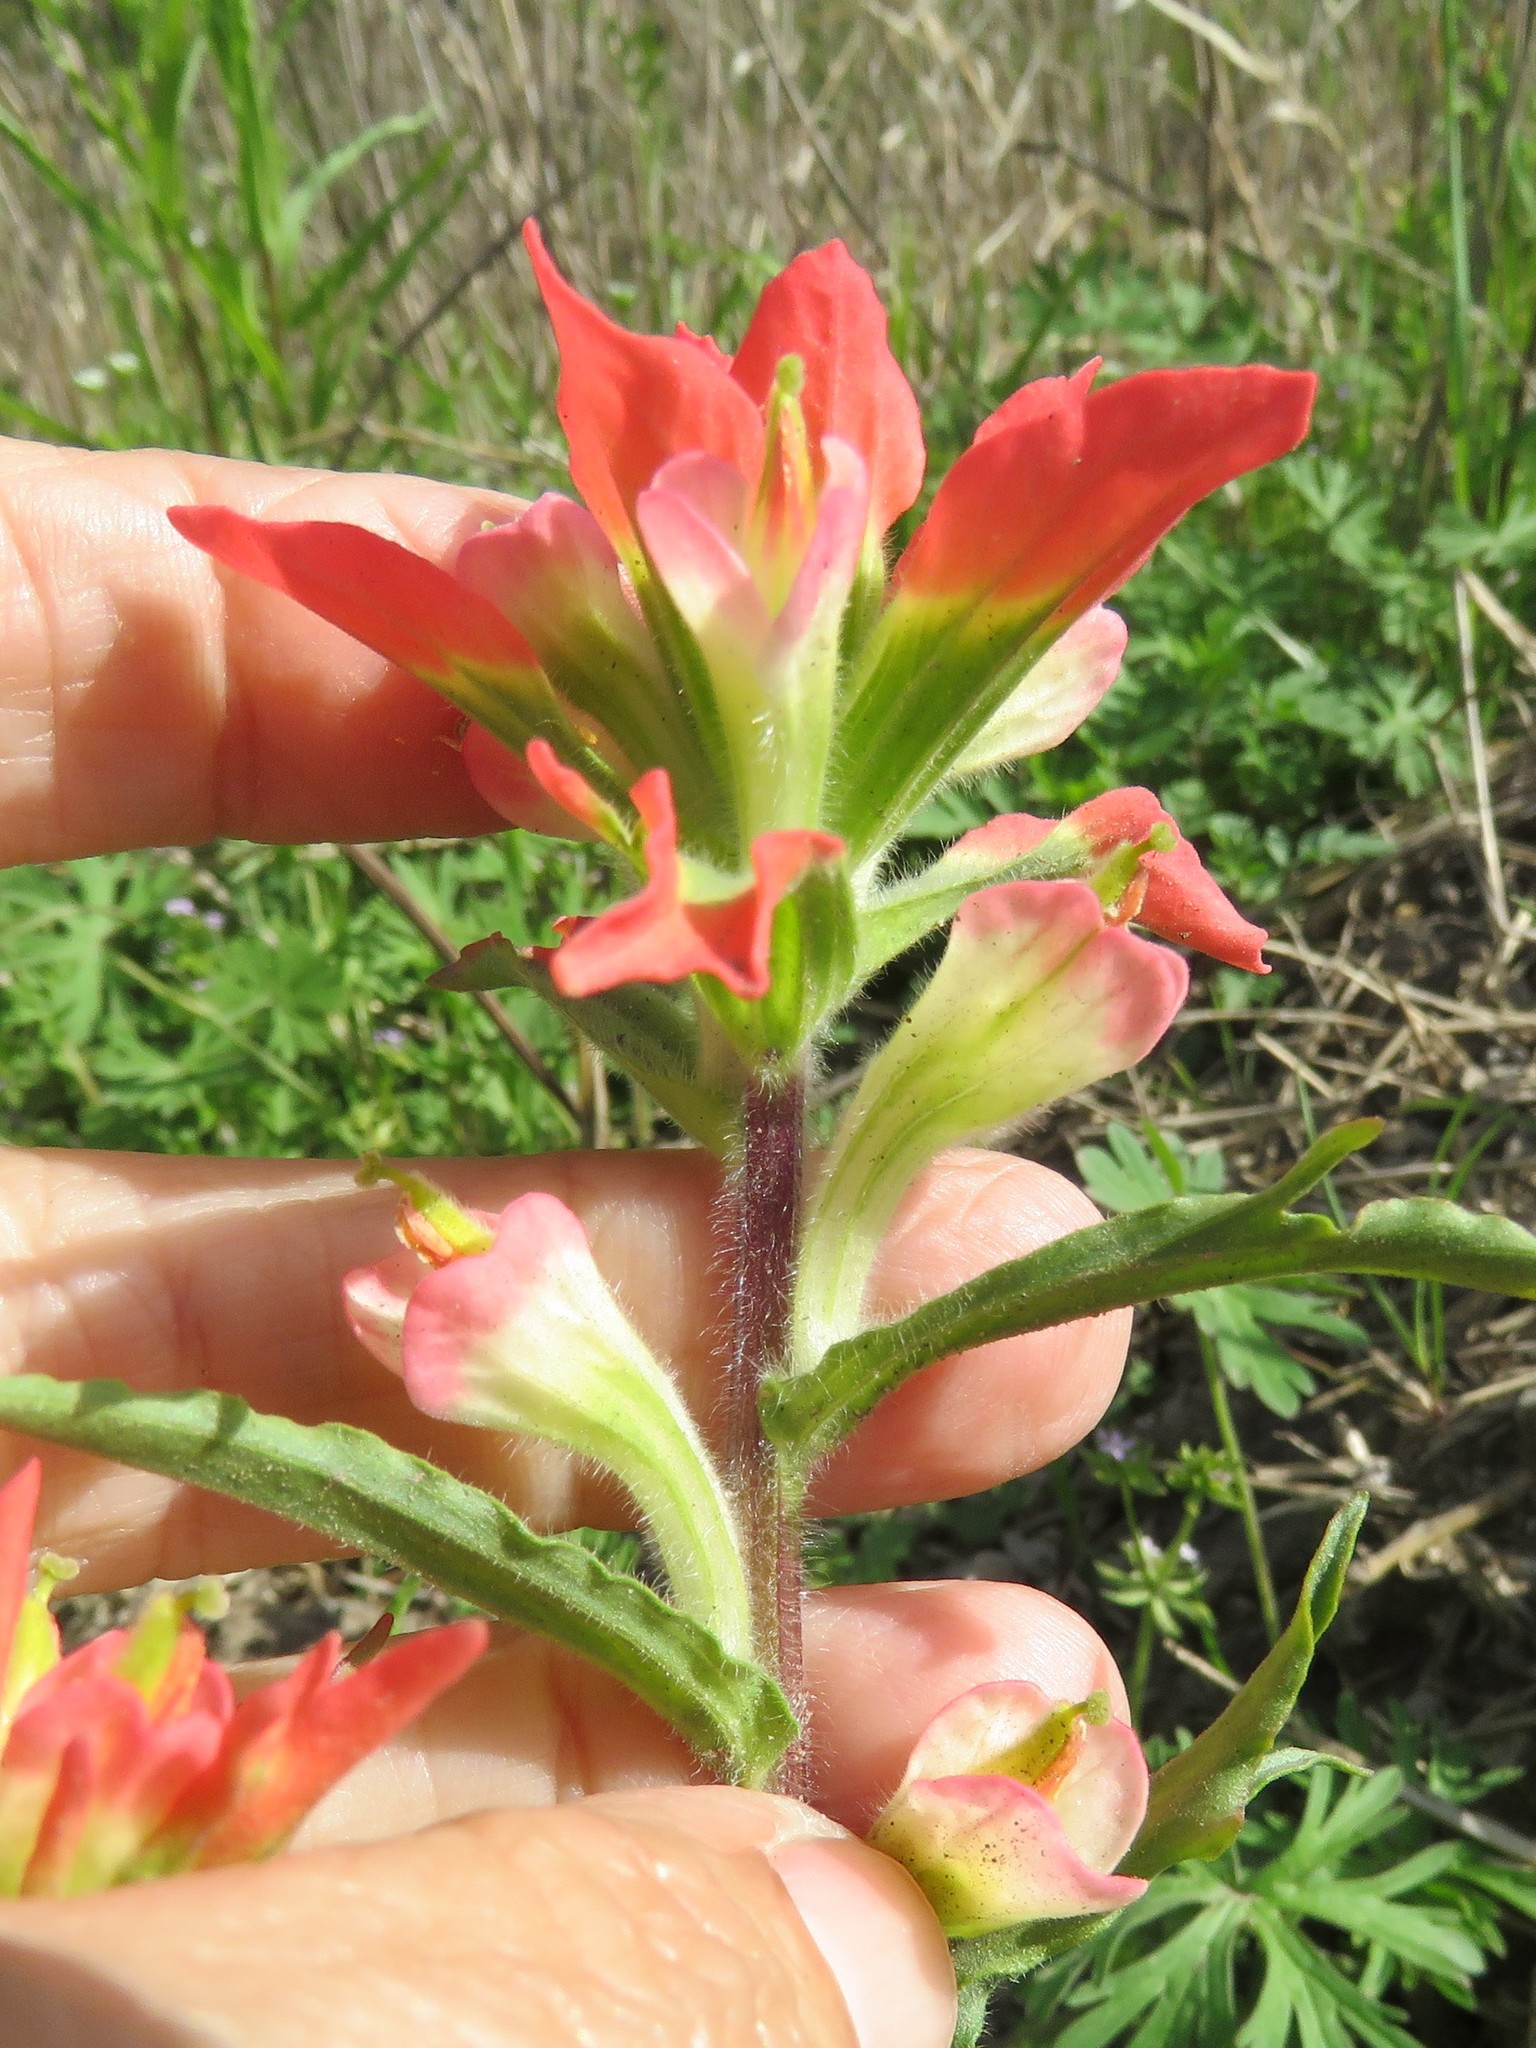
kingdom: Plantae
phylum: Tracheophyta
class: Magnoliopsida
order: Lamiales
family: Orobanchaceae
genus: Castilleja
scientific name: Castilleja indivisa
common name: Texas paintbrush
